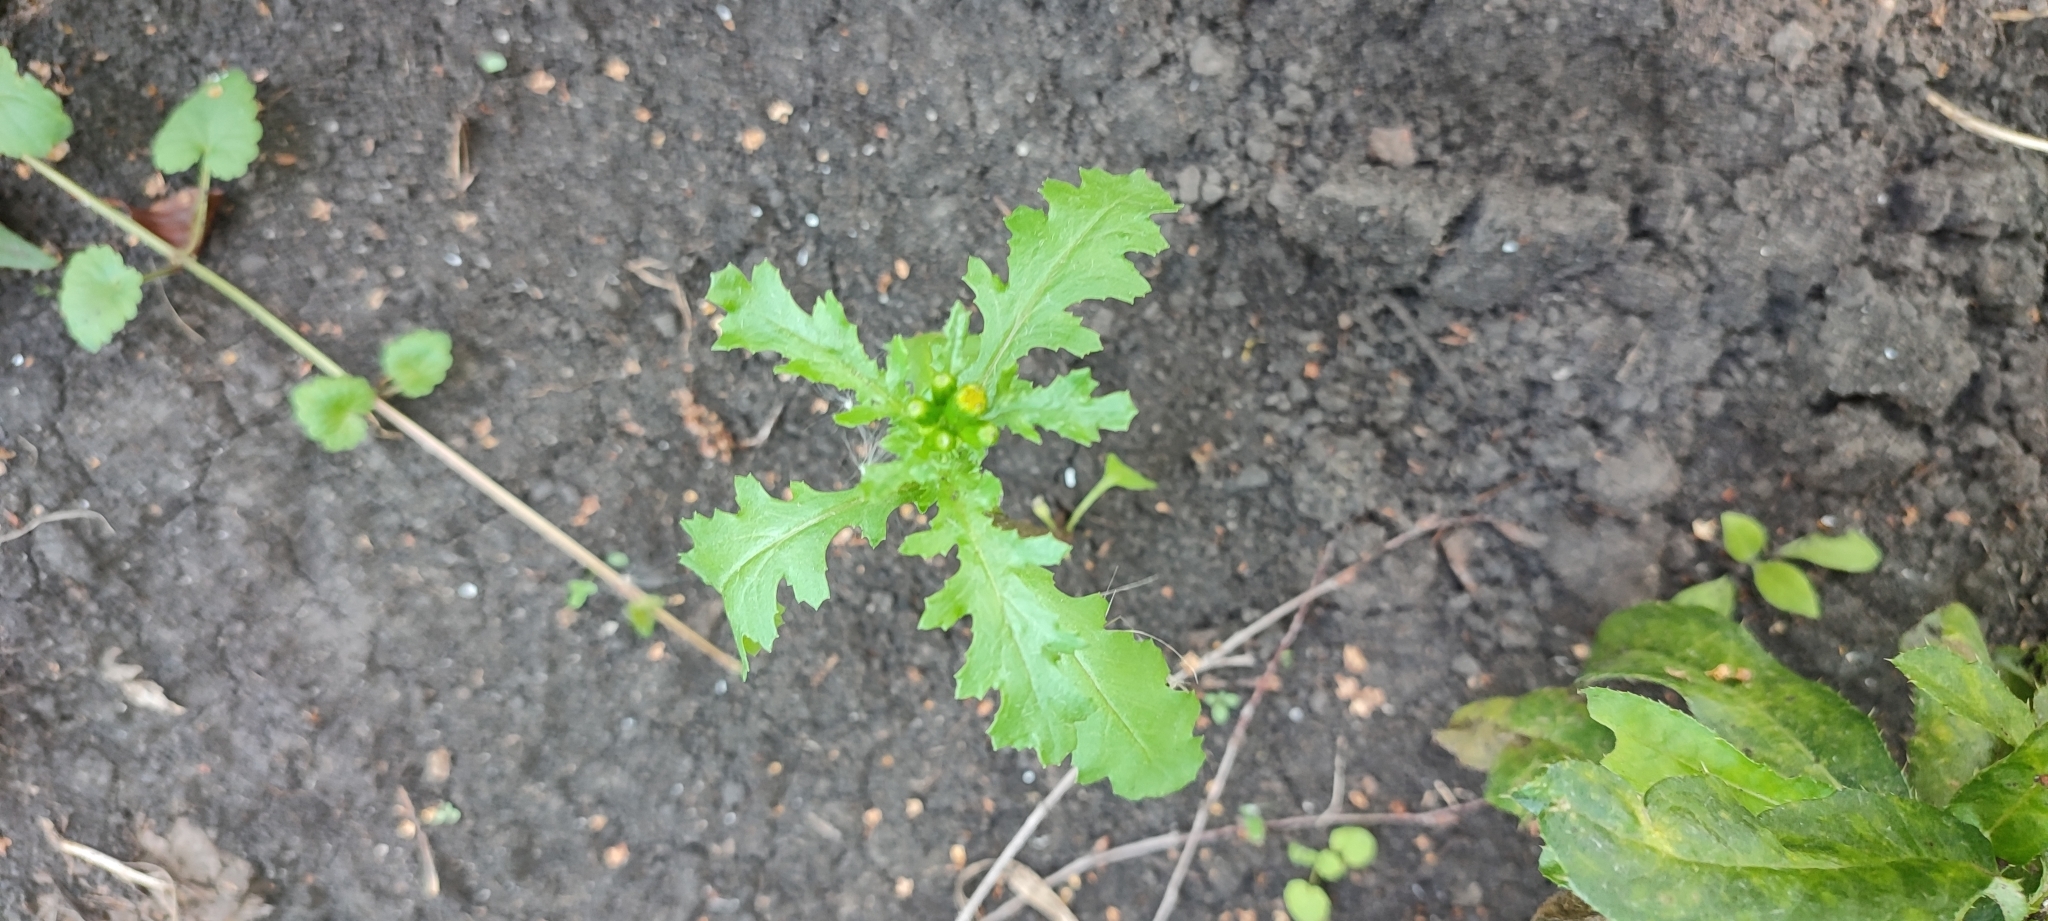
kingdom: Plantae
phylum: Tracheophyta
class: Magnoliopsida
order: Asterales
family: Asteraceae
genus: Senecio
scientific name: Senecio vulgaris
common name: Old-man-in-the-spring
